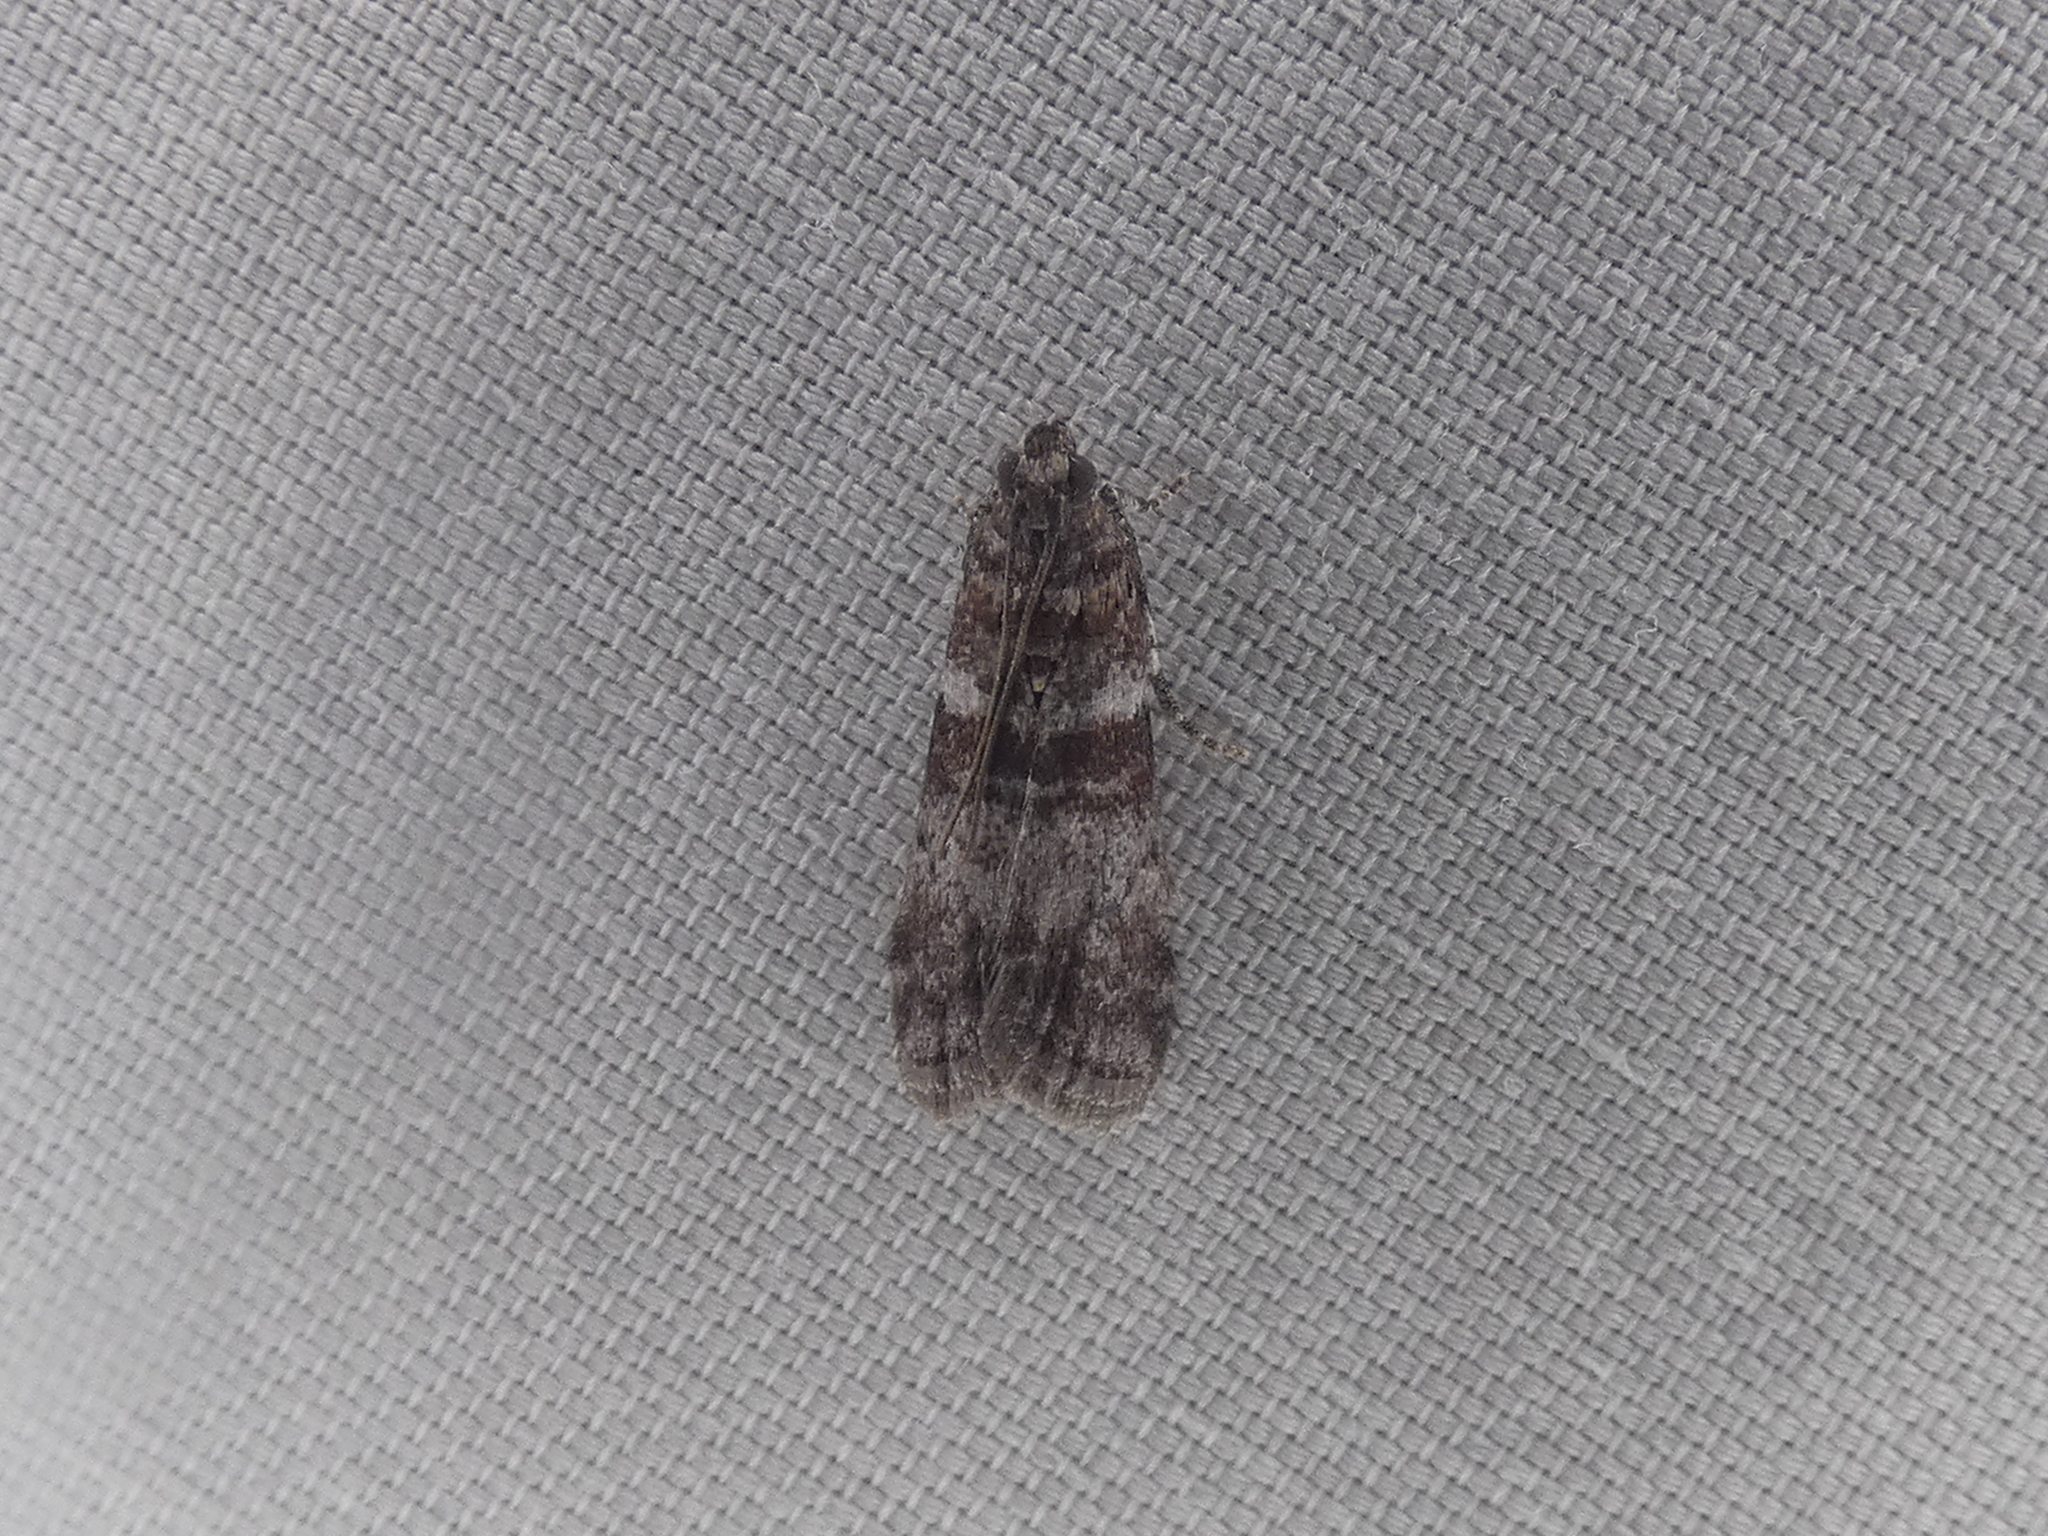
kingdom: Animalia
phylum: Arthropoda
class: Insecta
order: Lepidoptera
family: Pyralidae
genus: Sciota
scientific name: Sciota uvinella
